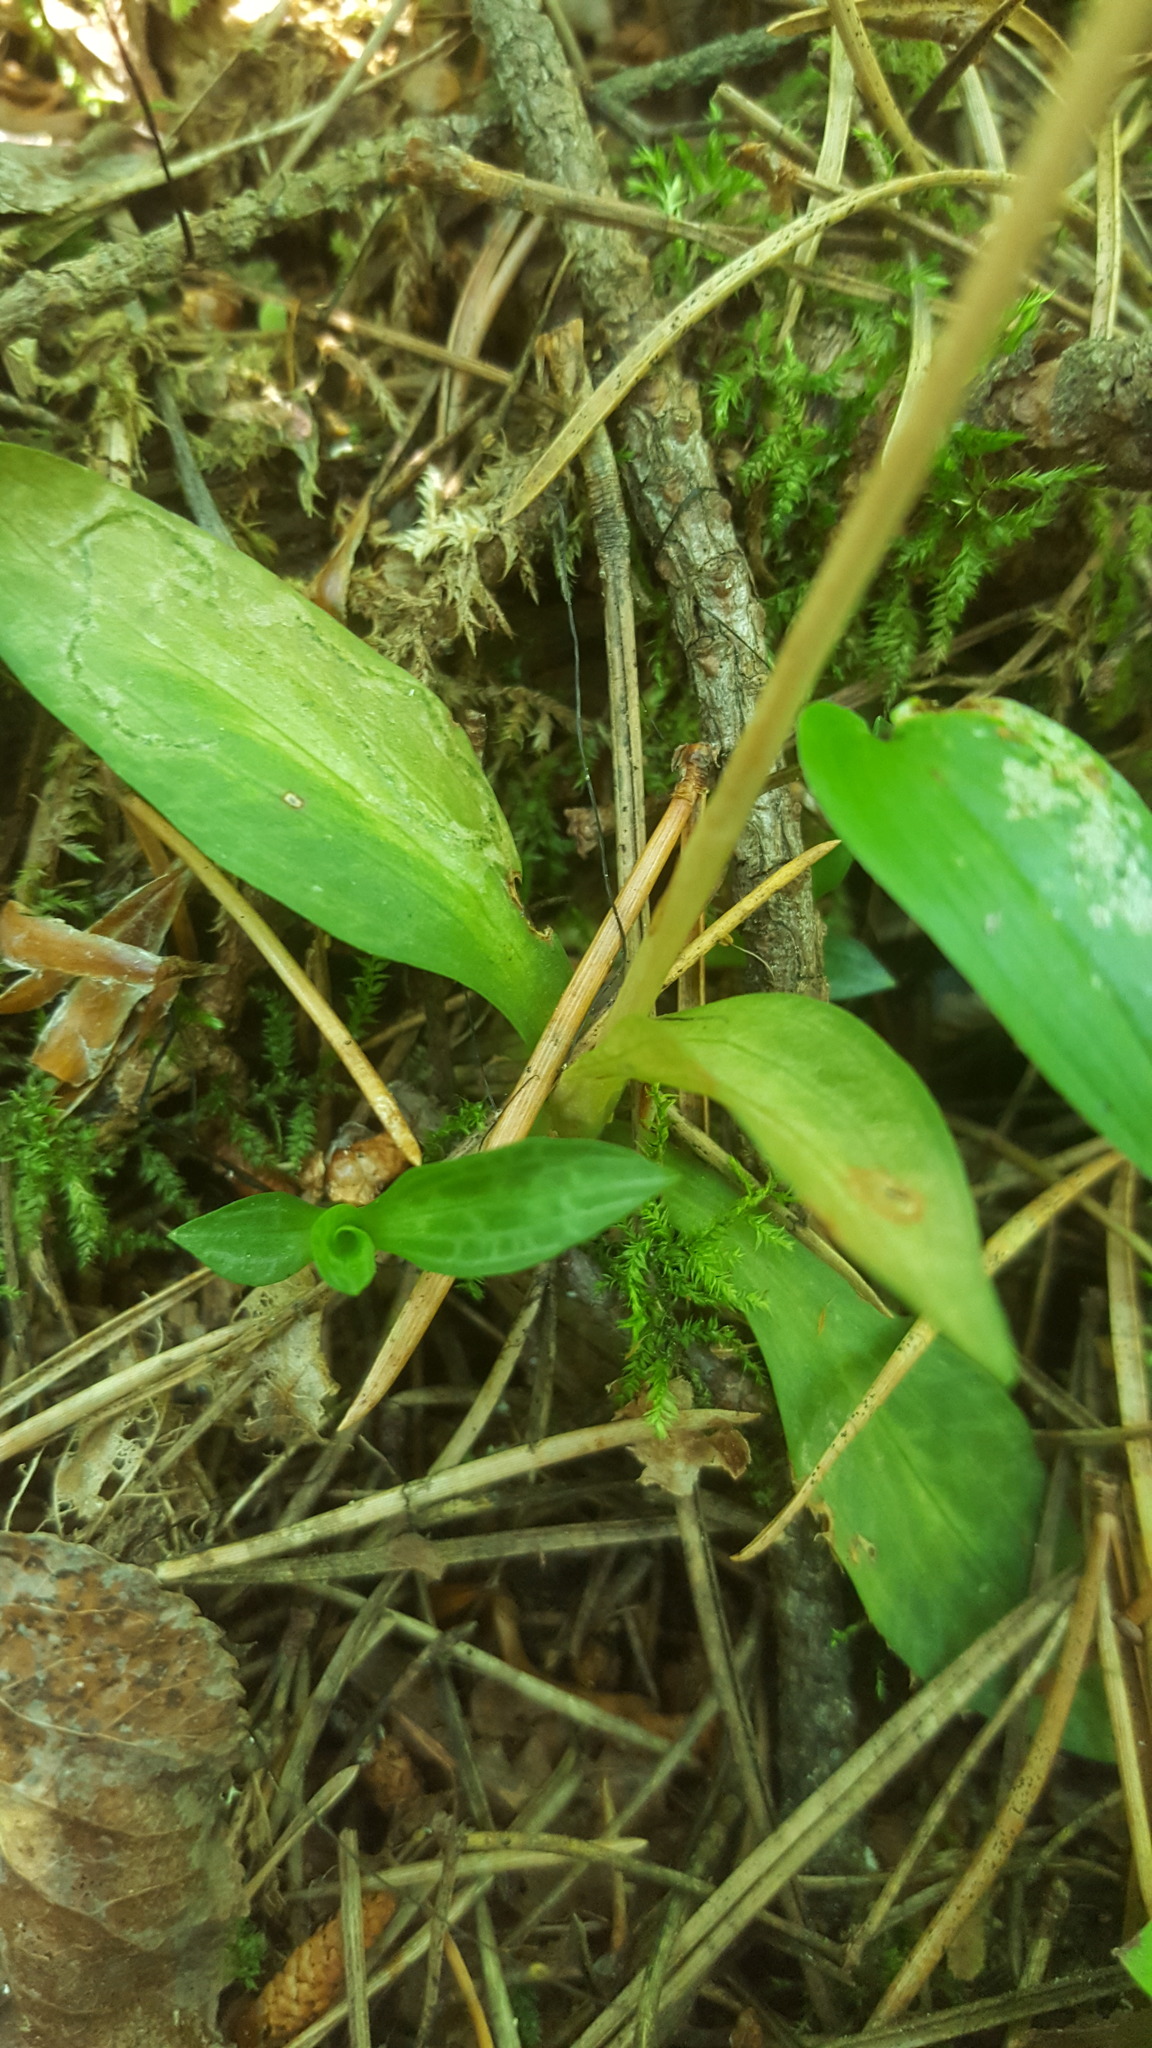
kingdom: Plantae
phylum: Tracheophyta
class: Liliopsida
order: Asparagales
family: Orchidaceae
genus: Goodyera
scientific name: Goodyera tesselata
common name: Checkered rattlesnake-plantain
